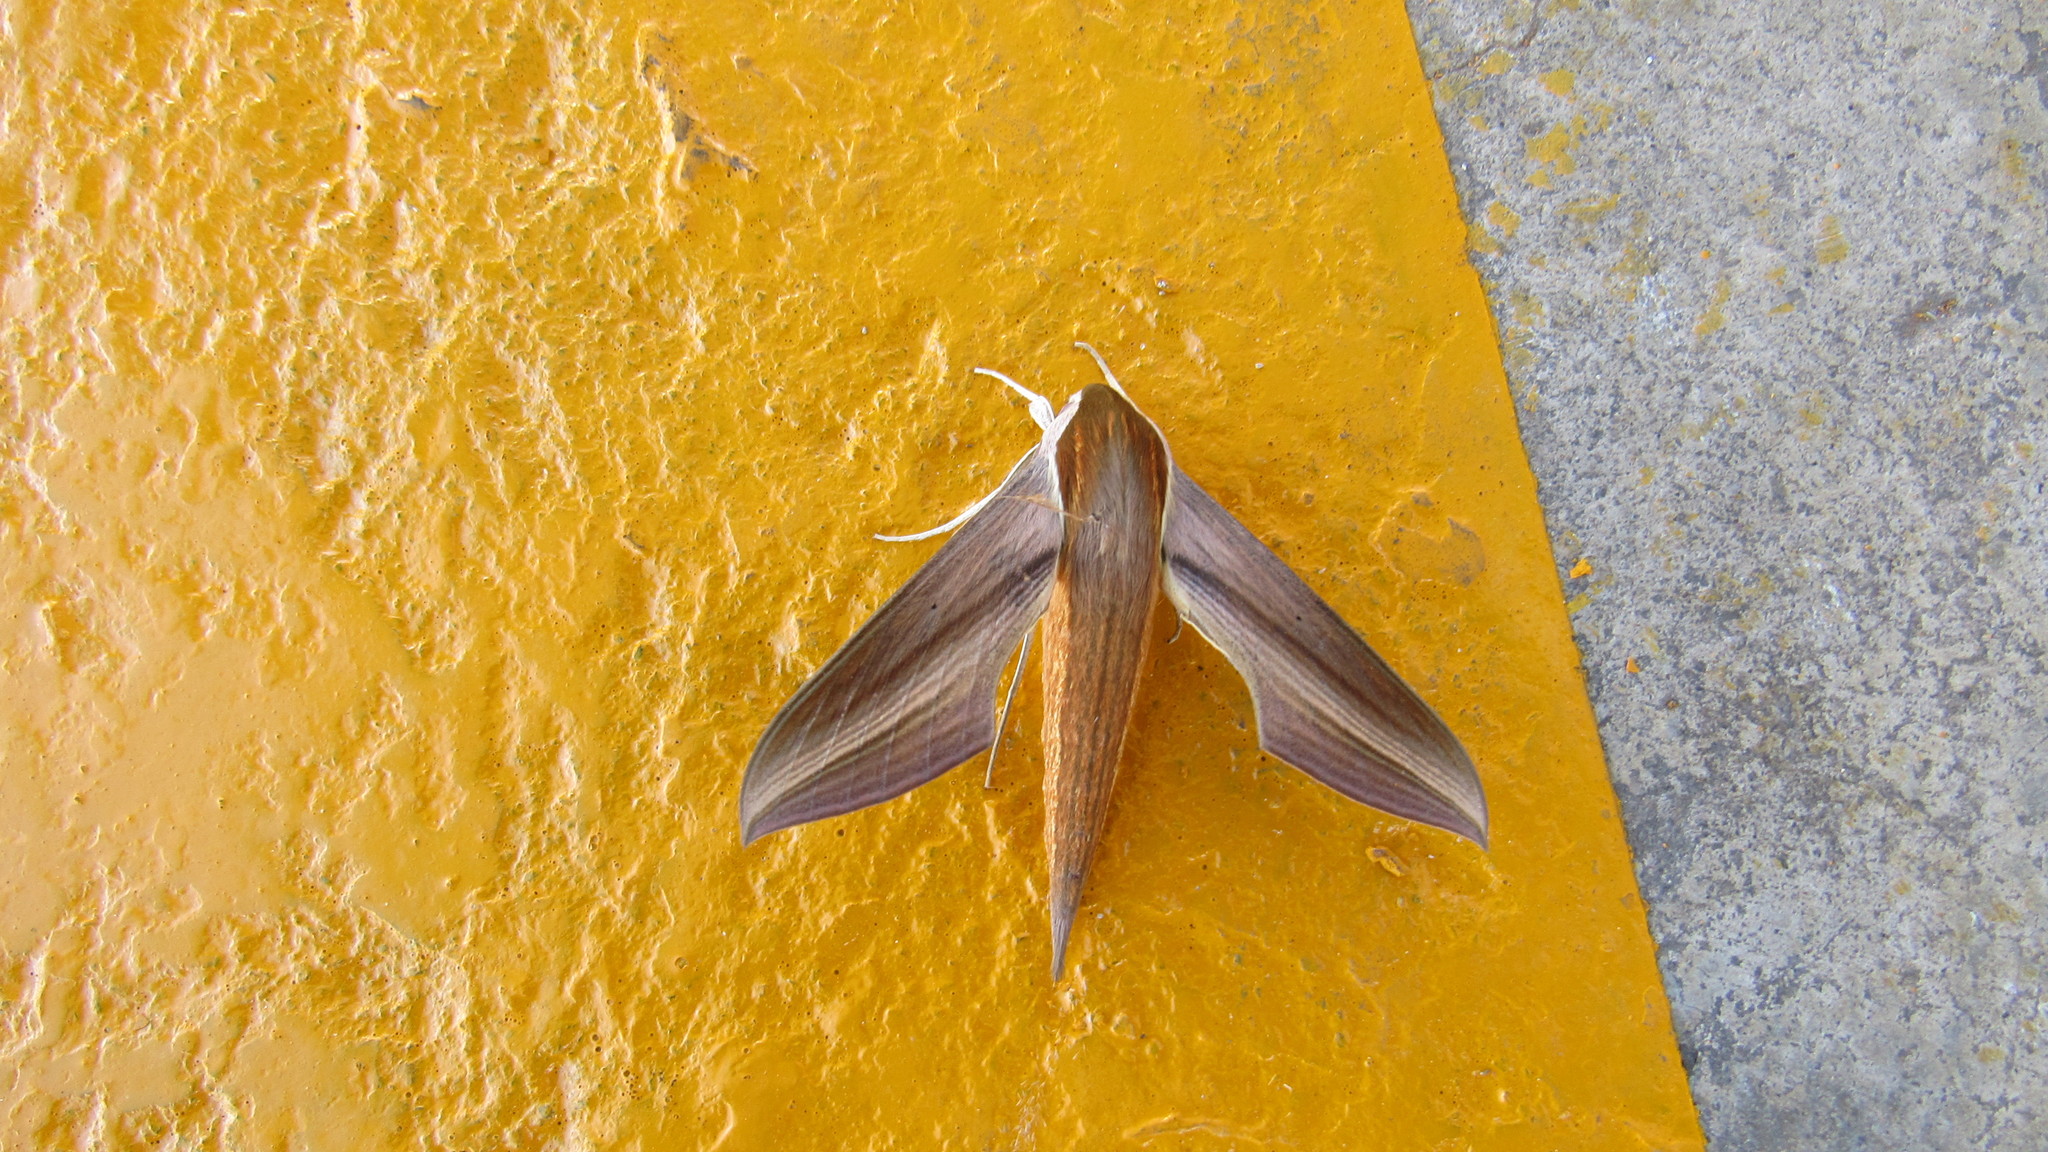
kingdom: Animalia
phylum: Arthropoda
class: Insecta
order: Lepidoptera
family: Sphingidae
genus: Xylophanes
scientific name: Xylophanes tersa
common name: Tersa sphinx
